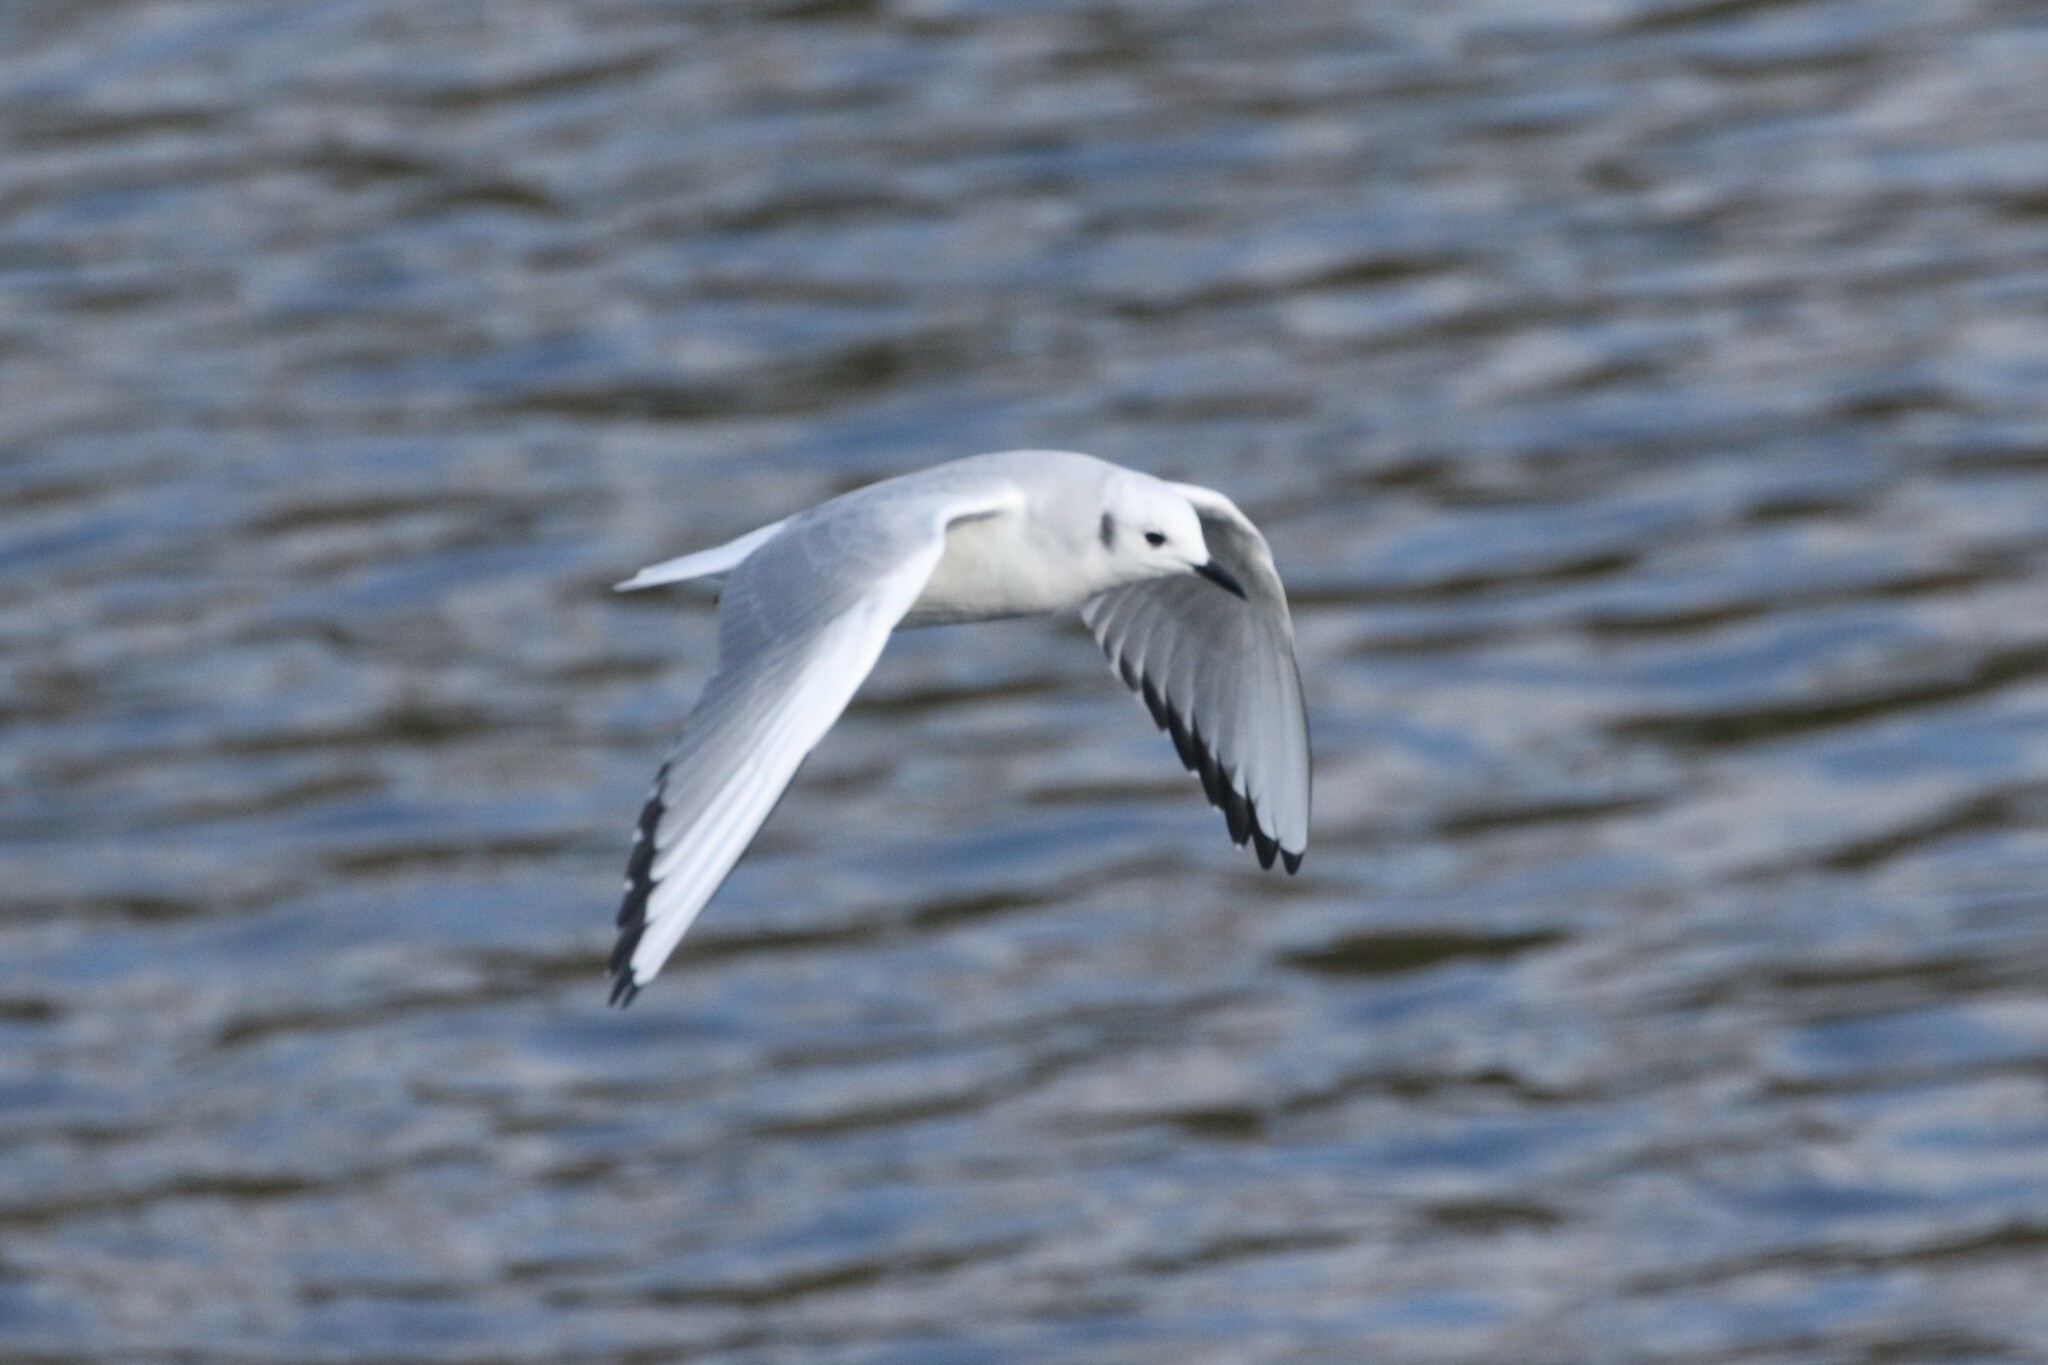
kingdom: Animalia
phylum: Chordata
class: Aves
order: Charadriiformes
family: Laridae
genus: Chroicocephalus
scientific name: Chroicocephalus philadelphia
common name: Bonaparte's gull
